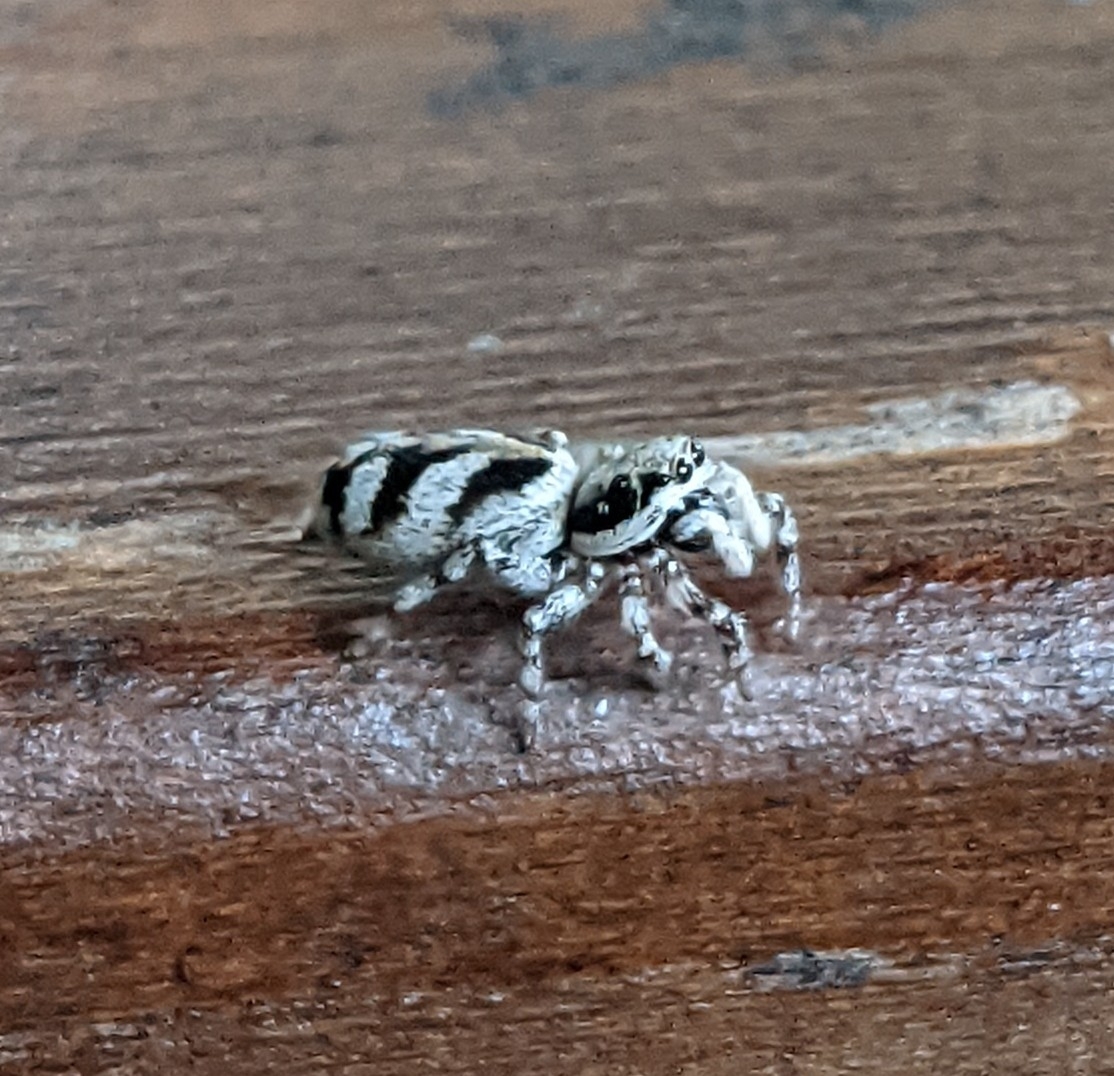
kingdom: Animalia
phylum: Arthropoda
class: Arachnida
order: Araneae
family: Salticidae
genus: Salticus
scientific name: Salticus cingulatus
